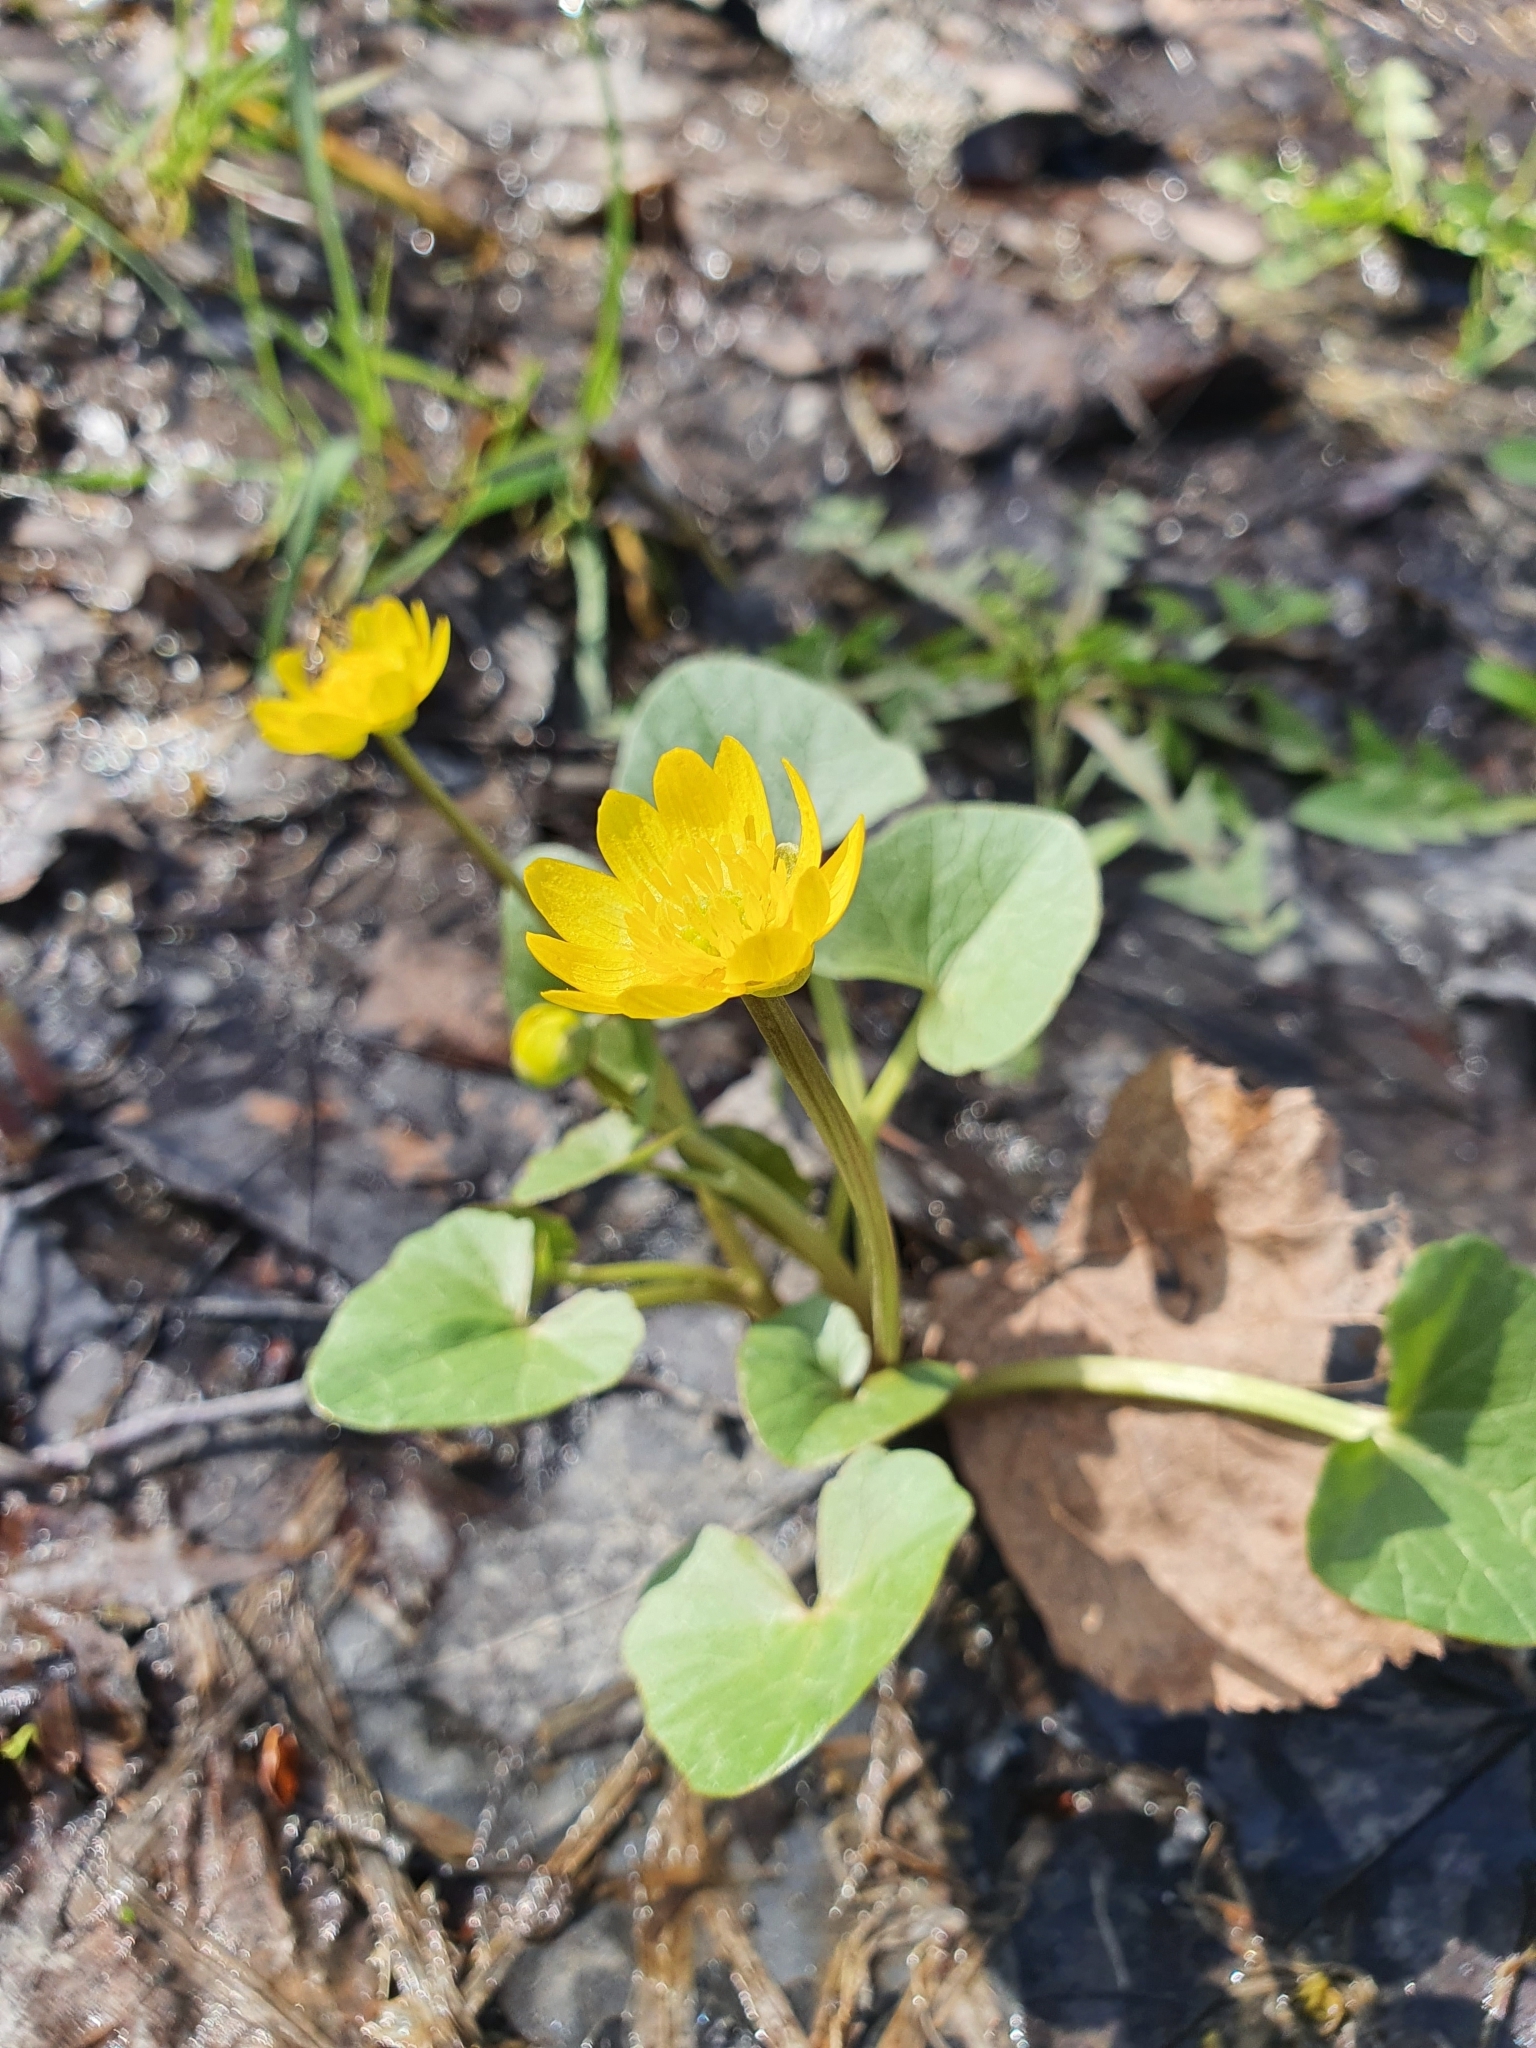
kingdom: Plantae
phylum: Tracheophyta
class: Magnoliopsida
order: Ranunculales
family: Ranunculaceae
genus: Ficaria
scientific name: Ficaria verna
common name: Lesser celandine
